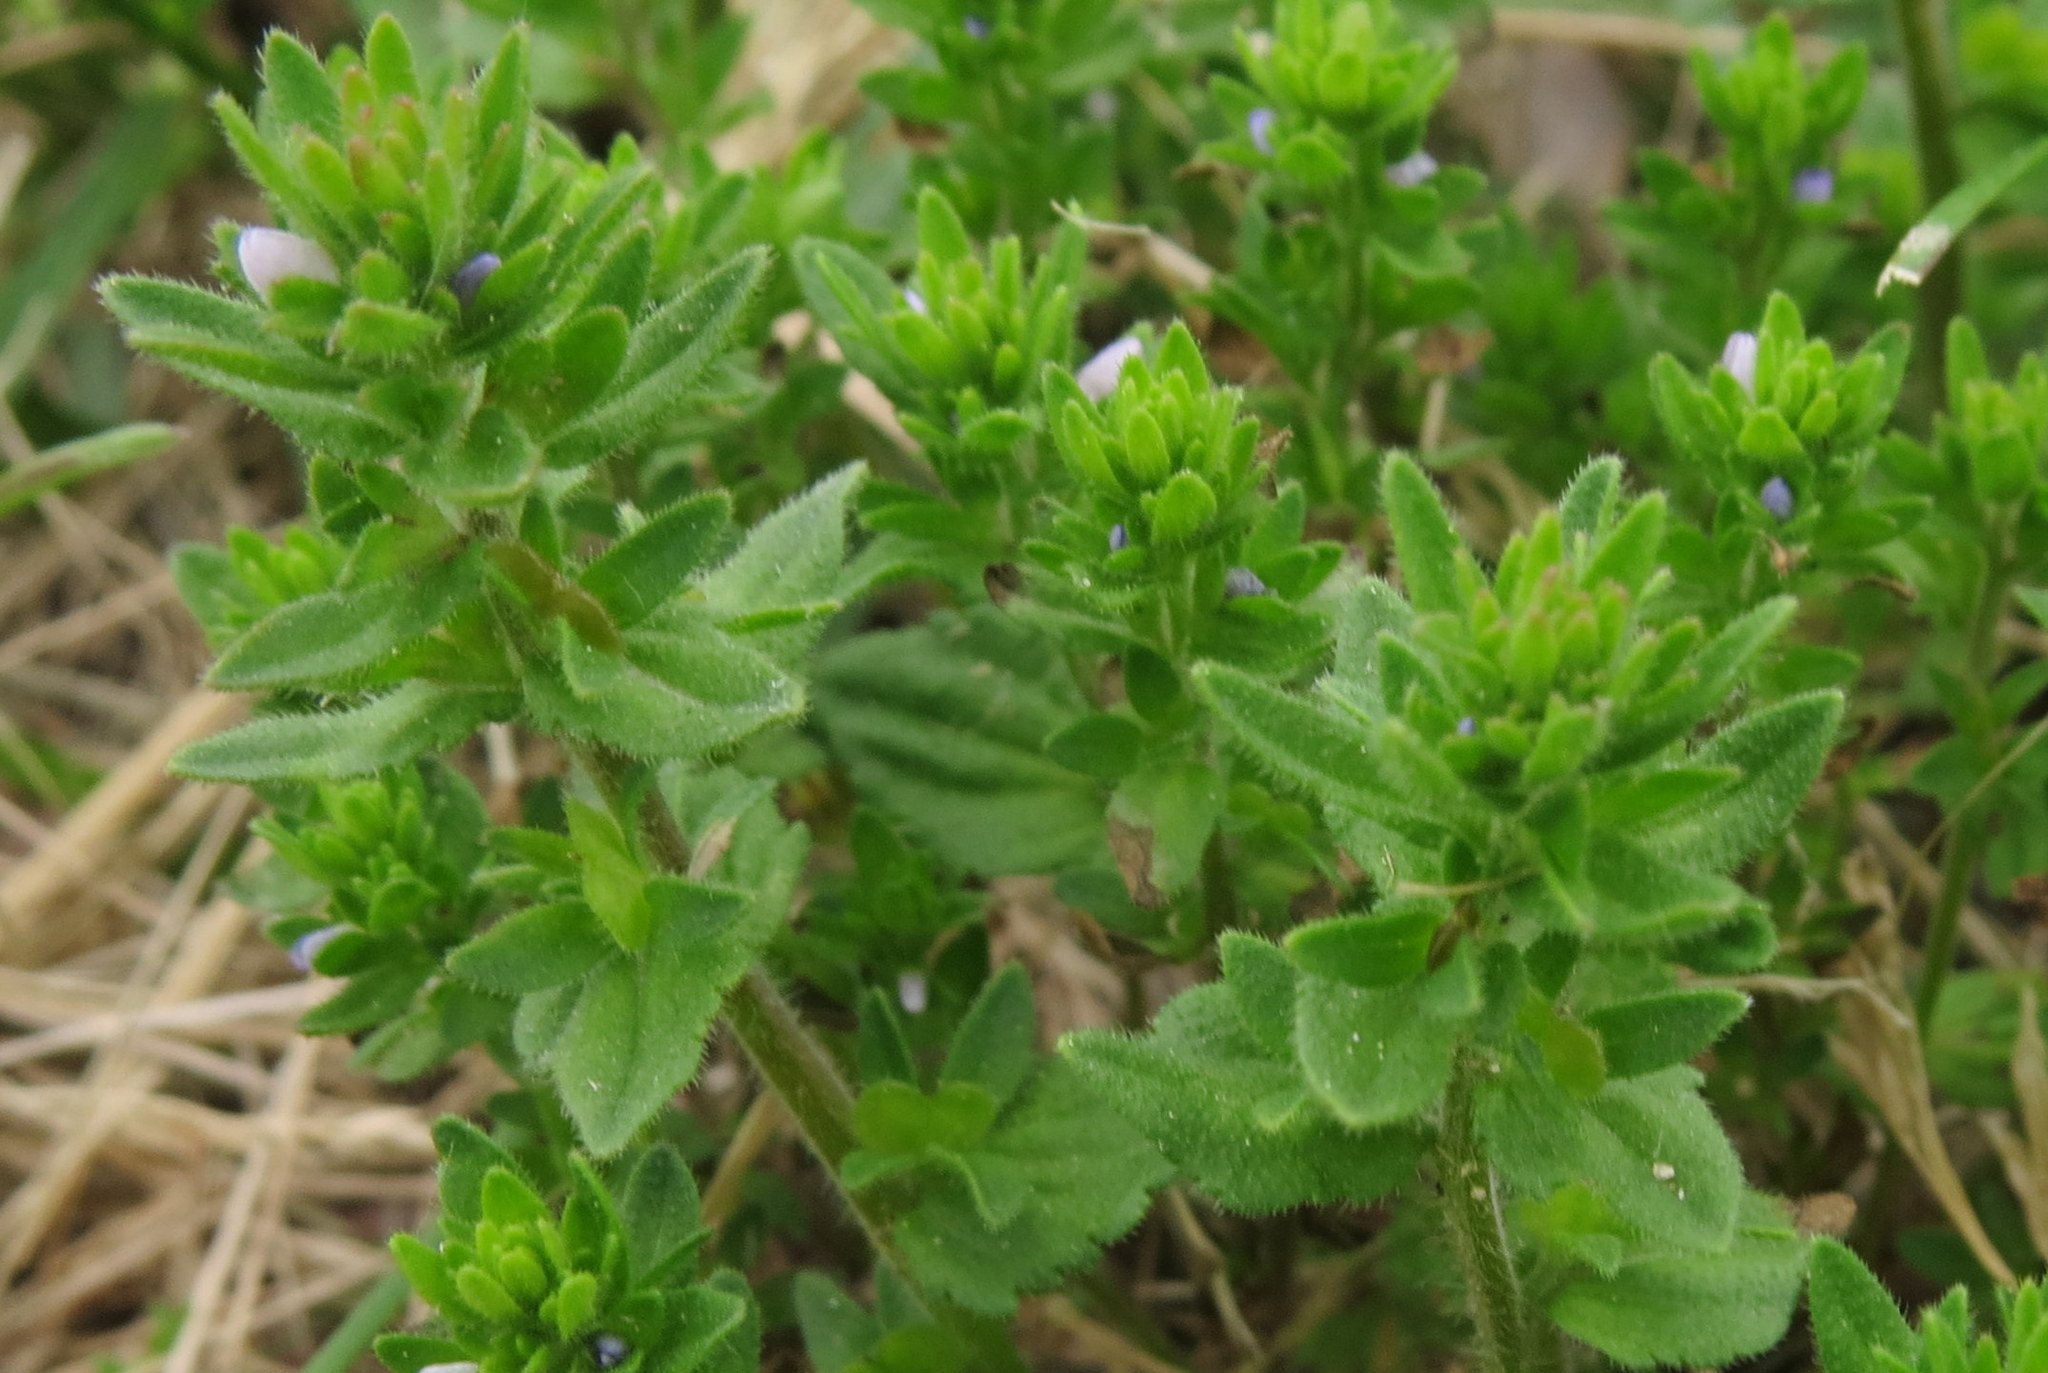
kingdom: Plantae
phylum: Tracheophyta
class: Magnoliopsida
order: Lamiales
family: Plantaginaceae
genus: Veronica
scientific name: Veronica arvensis
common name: Corn speedwell
